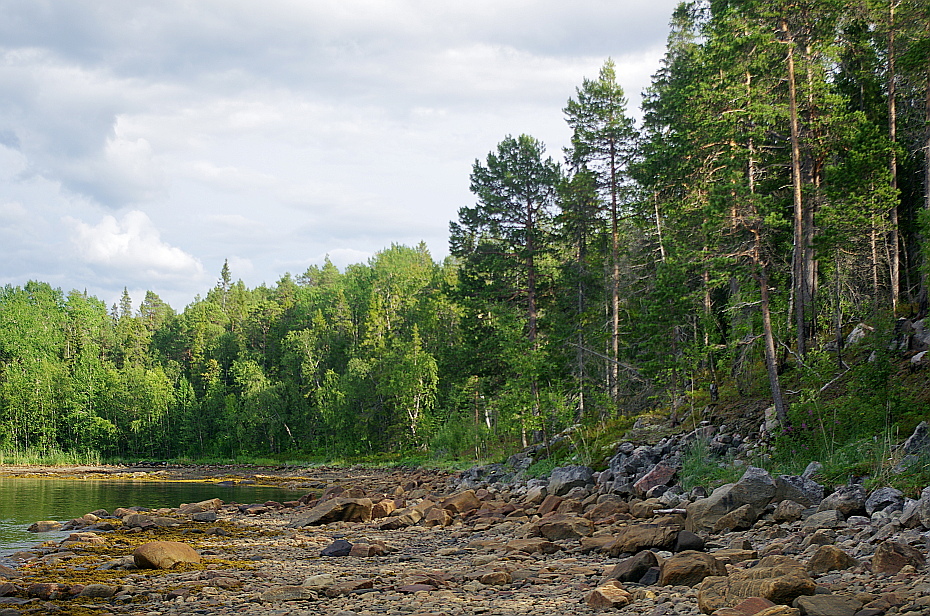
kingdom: Plantae
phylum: Tracheophyta
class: Pinopsida
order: Pinales
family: Pinaceae
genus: Pinus
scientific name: Pinus sylvestris
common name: Scots pine
